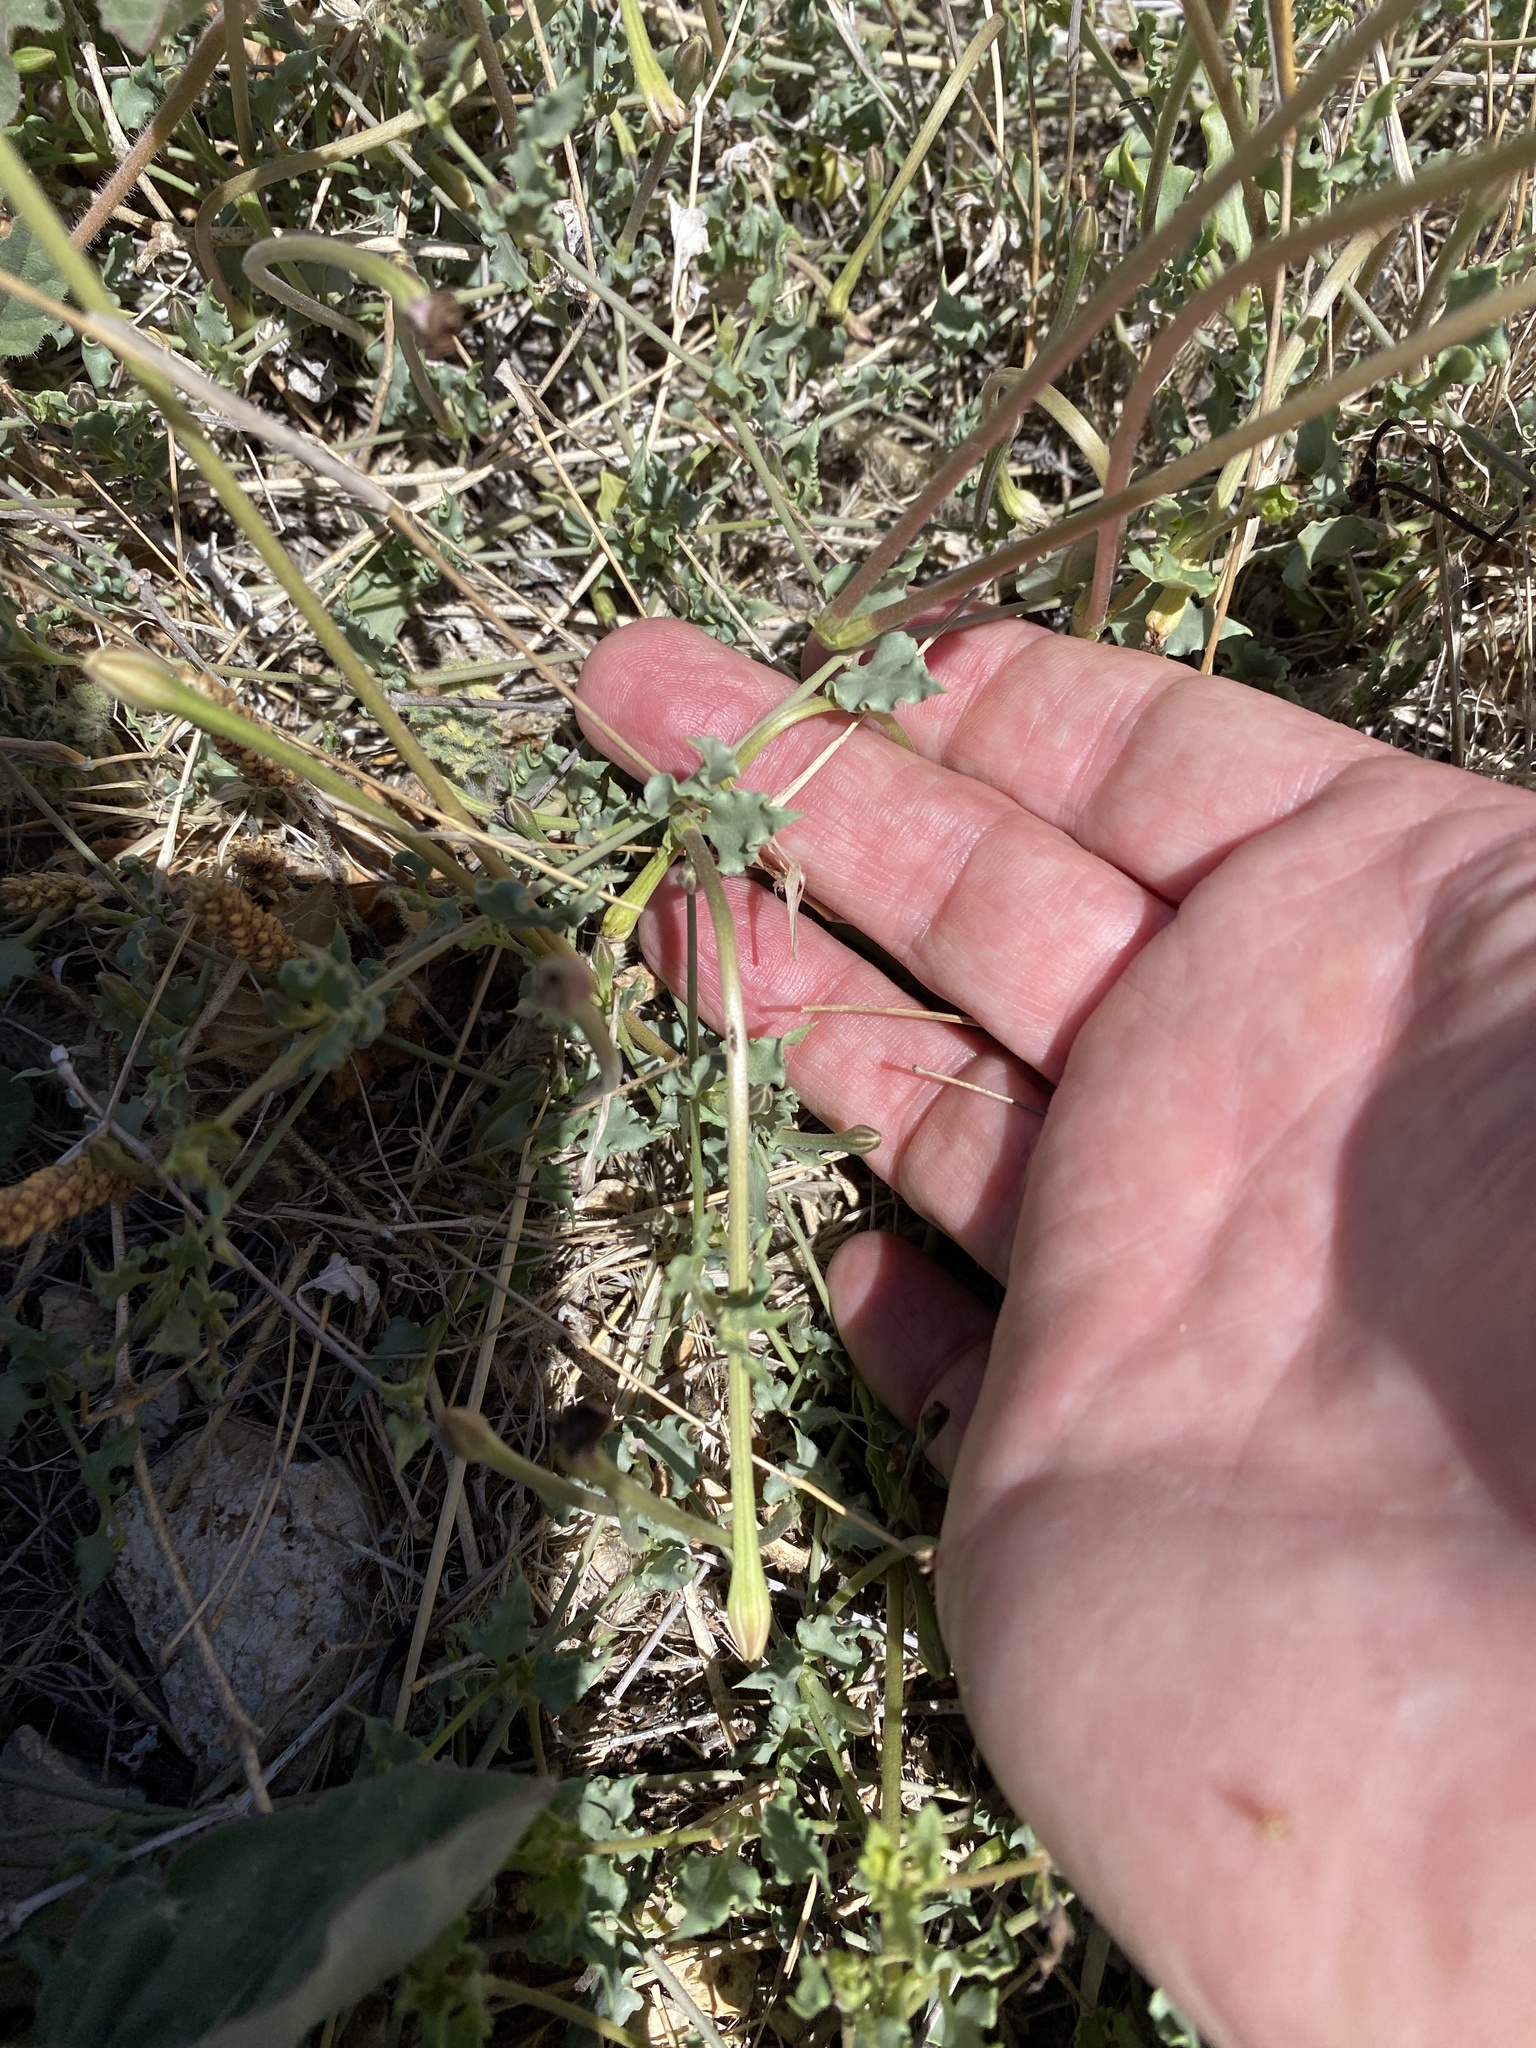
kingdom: Plantae
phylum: Tracheophyta
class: Magnoliopsida
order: Caryophyllales
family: Nyctaginaceae
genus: Acleisanthes
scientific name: Acleisanthes longiflora
